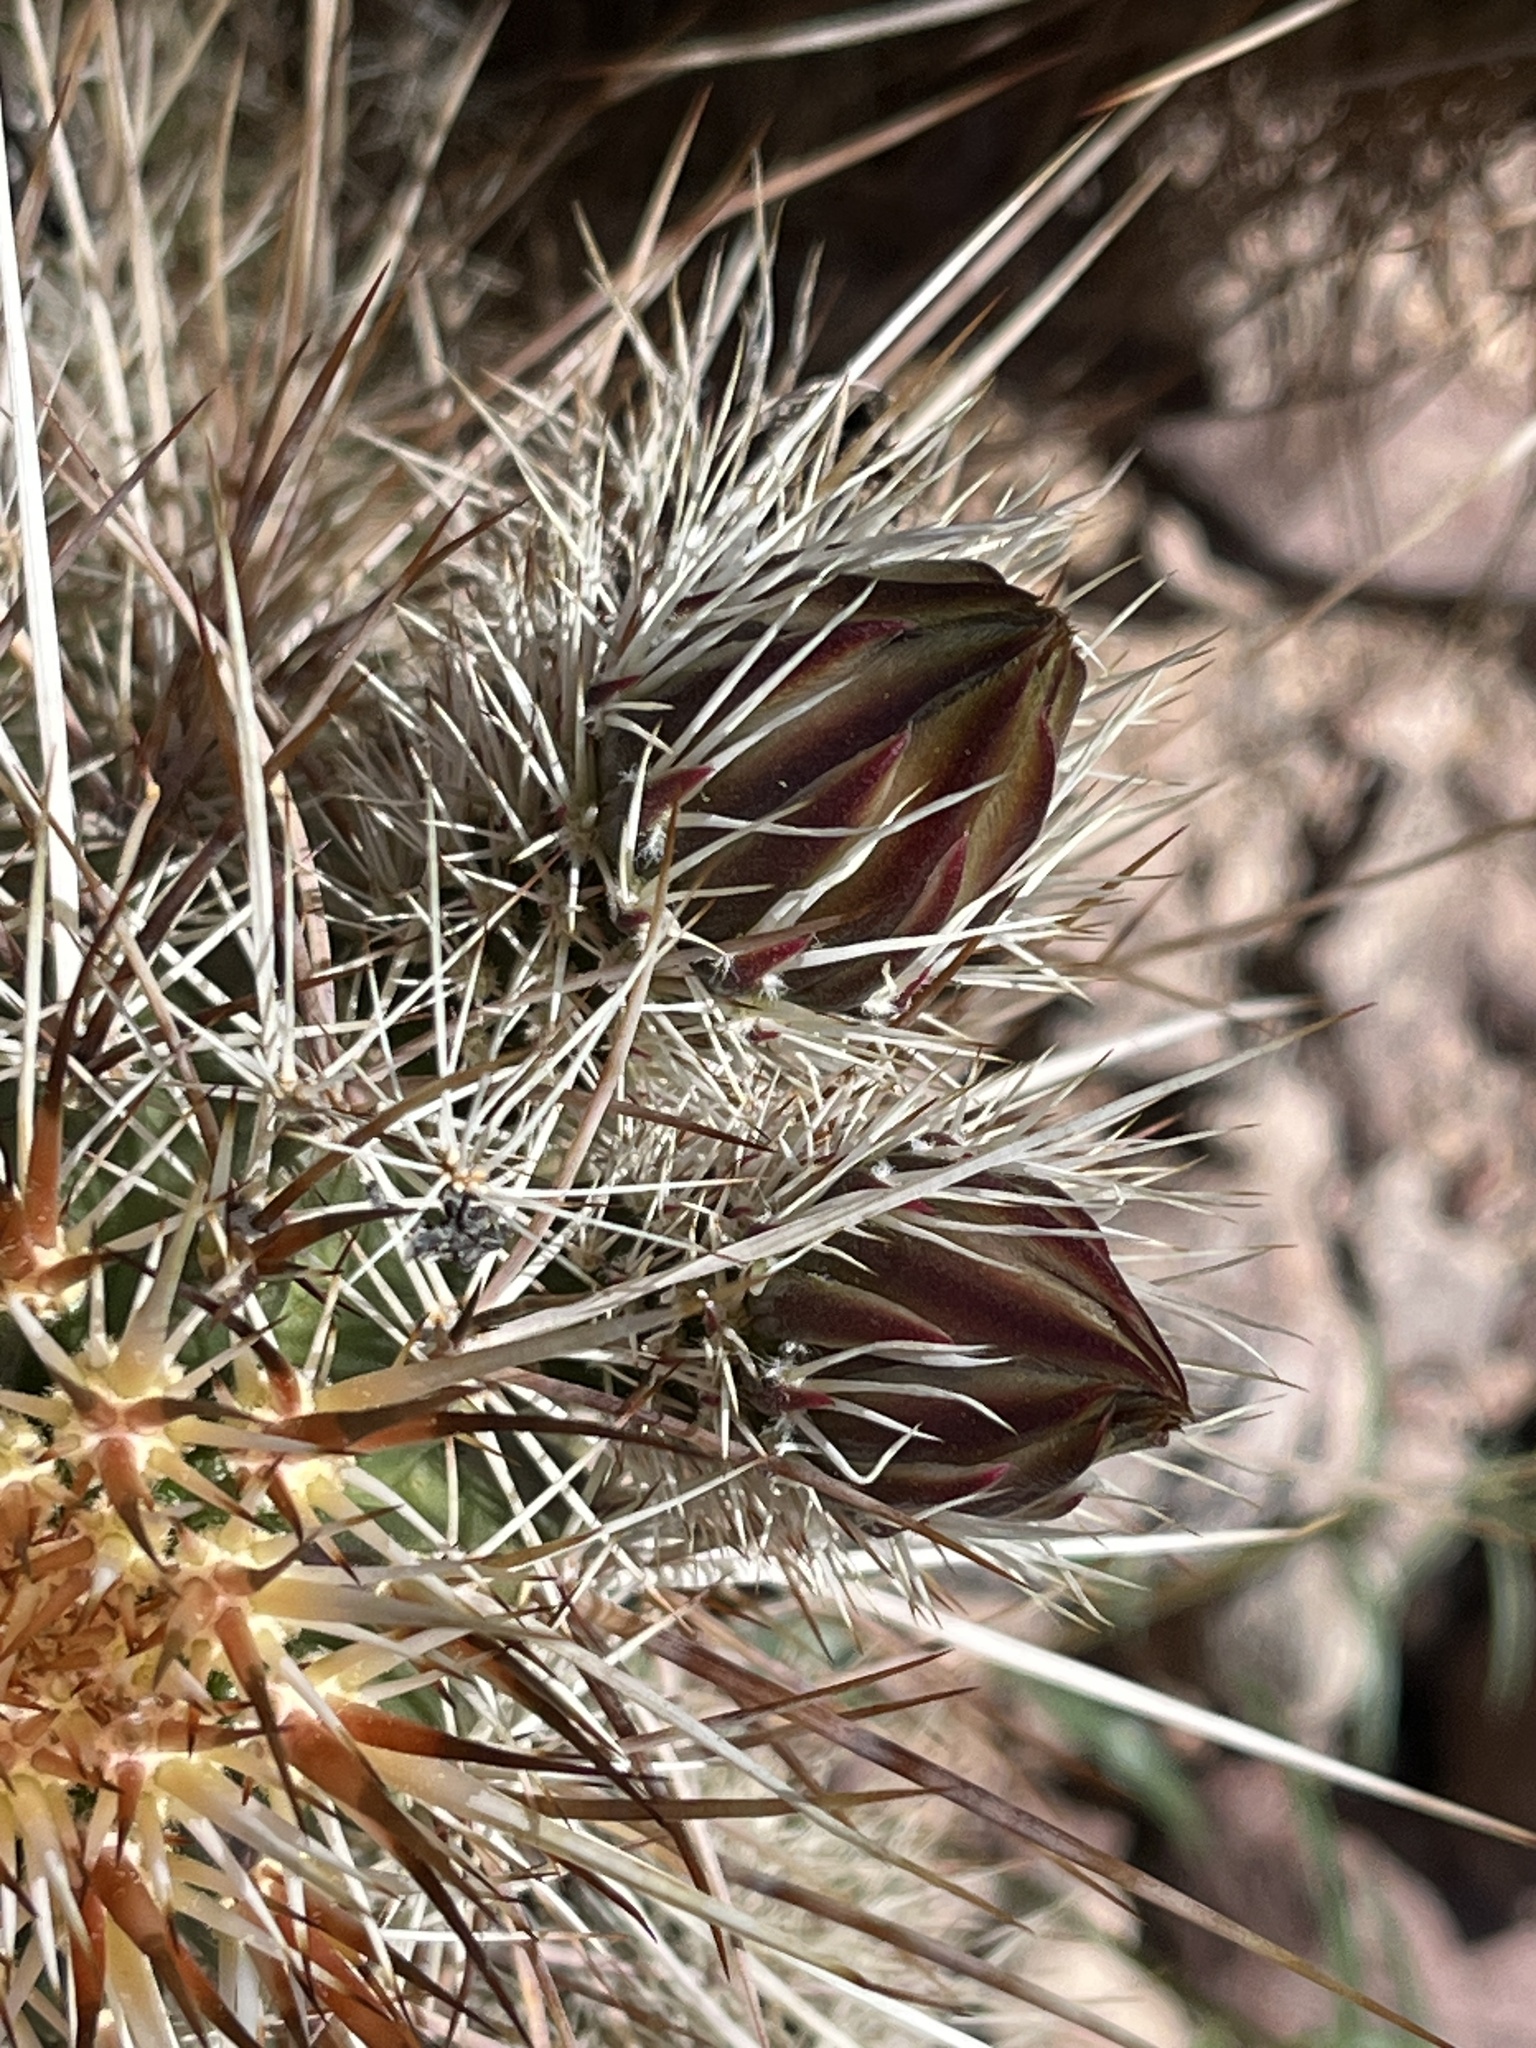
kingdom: Plantae
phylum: Tracheophyta
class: Magnoliopsida
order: Caryophyllales
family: Cactaceae
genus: Echinocereus
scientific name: Echinocereus engelmannii
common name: Engelmann's hedgehog cactus
